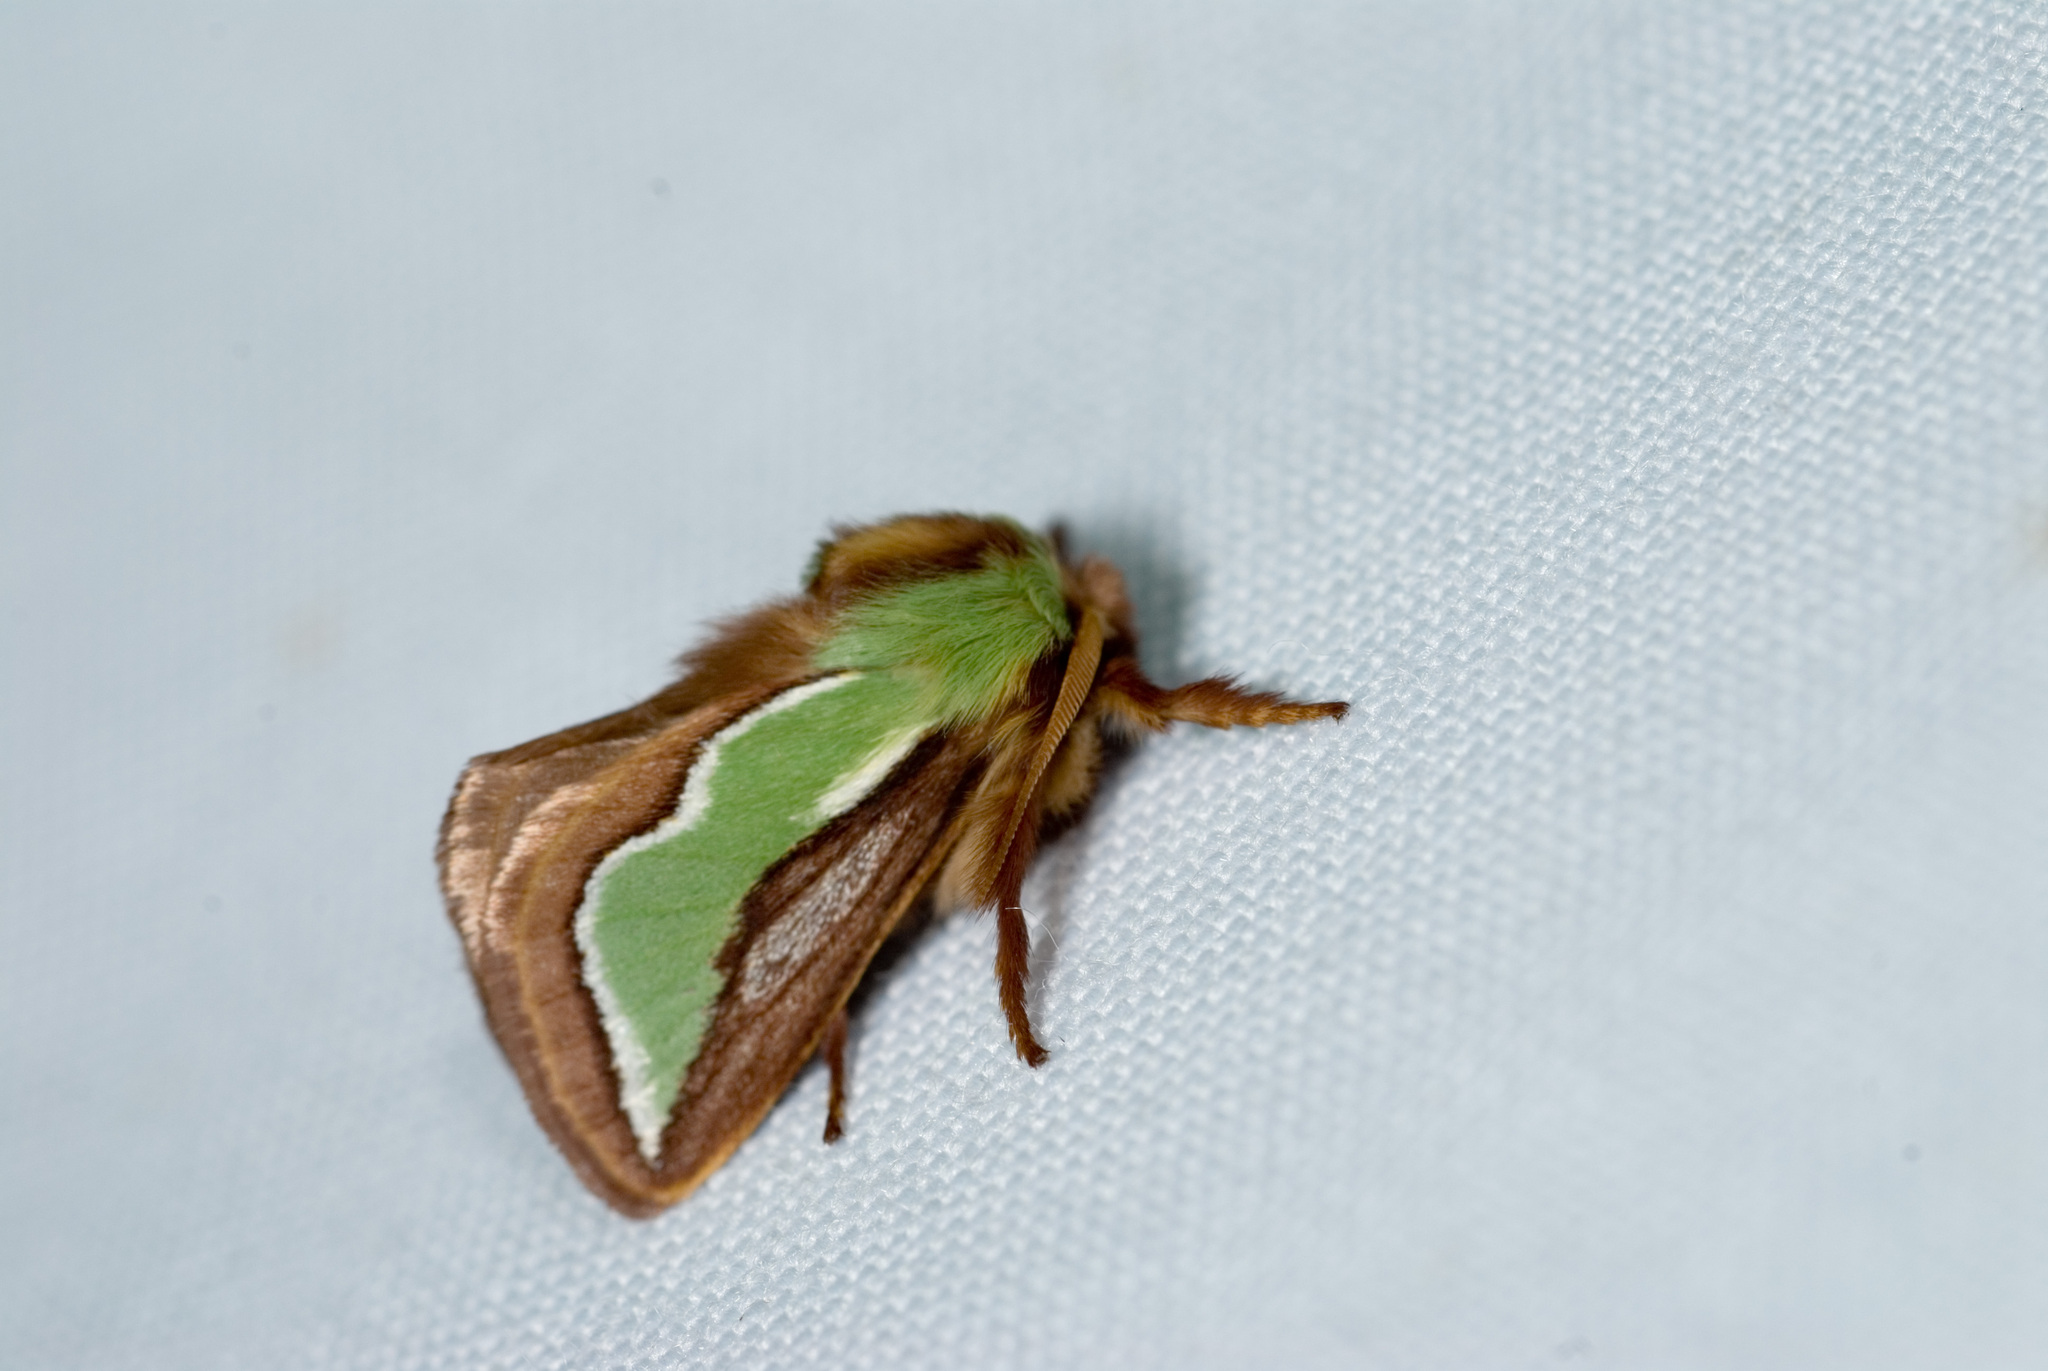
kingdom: Animalia
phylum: Arthropoda
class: Insecta
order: Lepidoptera
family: Limacodidae
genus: Caiella
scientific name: Caiella pygmy
